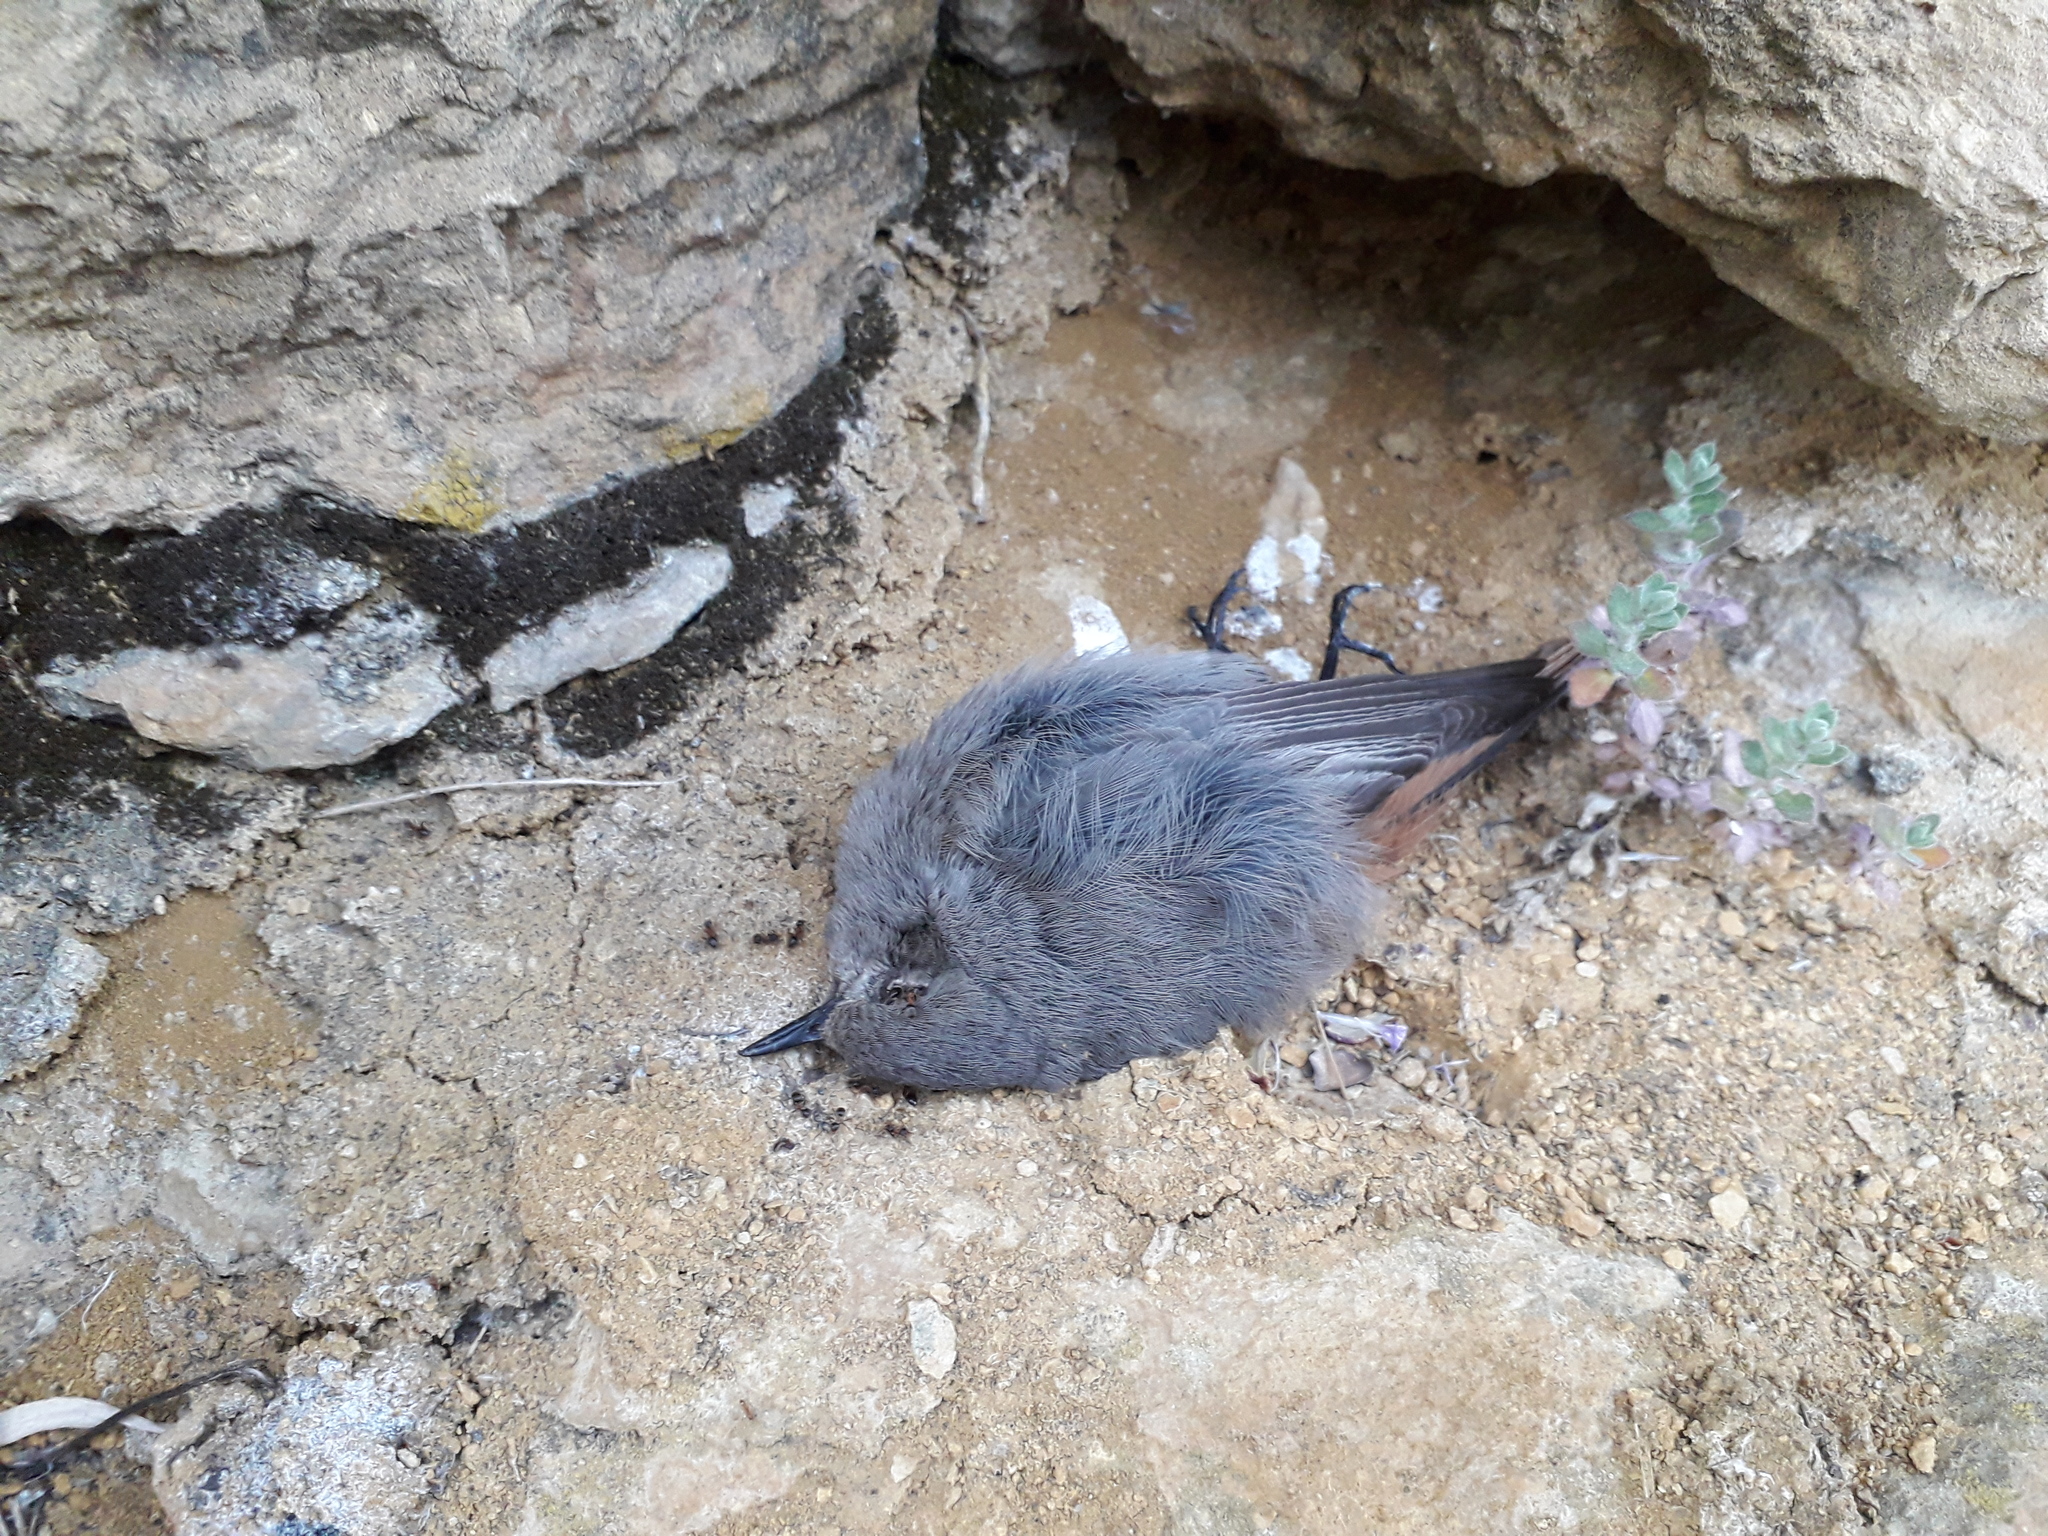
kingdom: Animalia
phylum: Chordata
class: Aves
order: Passeriformes
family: Muscicapidae
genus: Phoenicurus
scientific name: Phoenicurus ochruros
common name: Black redstart
